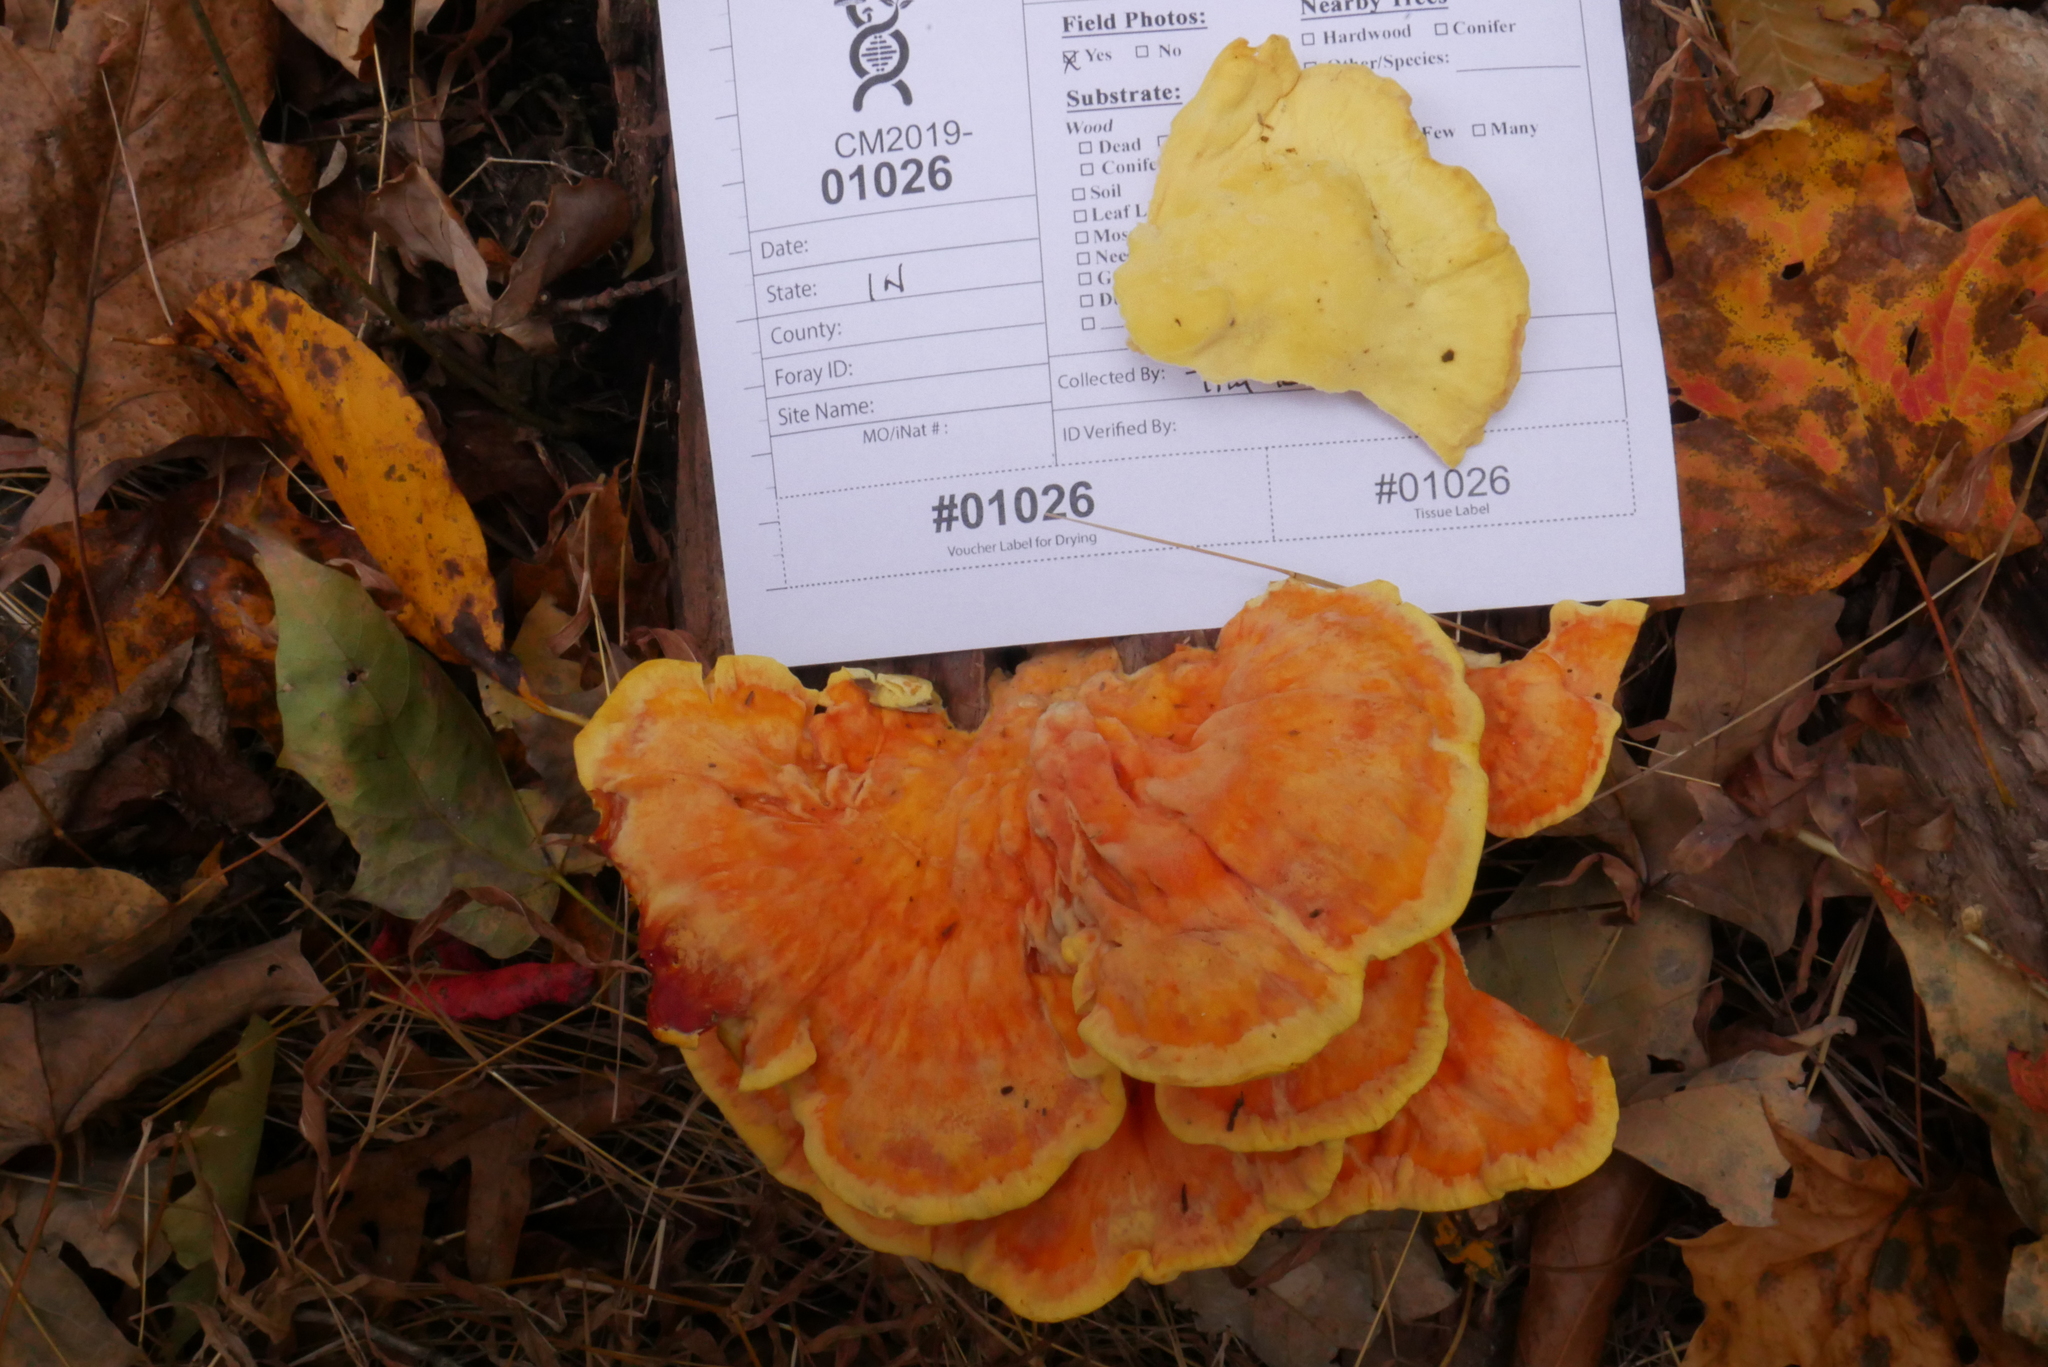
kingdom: Fungi
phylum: Basidiomycota
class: Agaricomycetes
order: Polyporales
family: Laetiporaceae
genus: Laetiporus
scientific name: Laetiporus sulphureus
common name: Chicken of the woods
